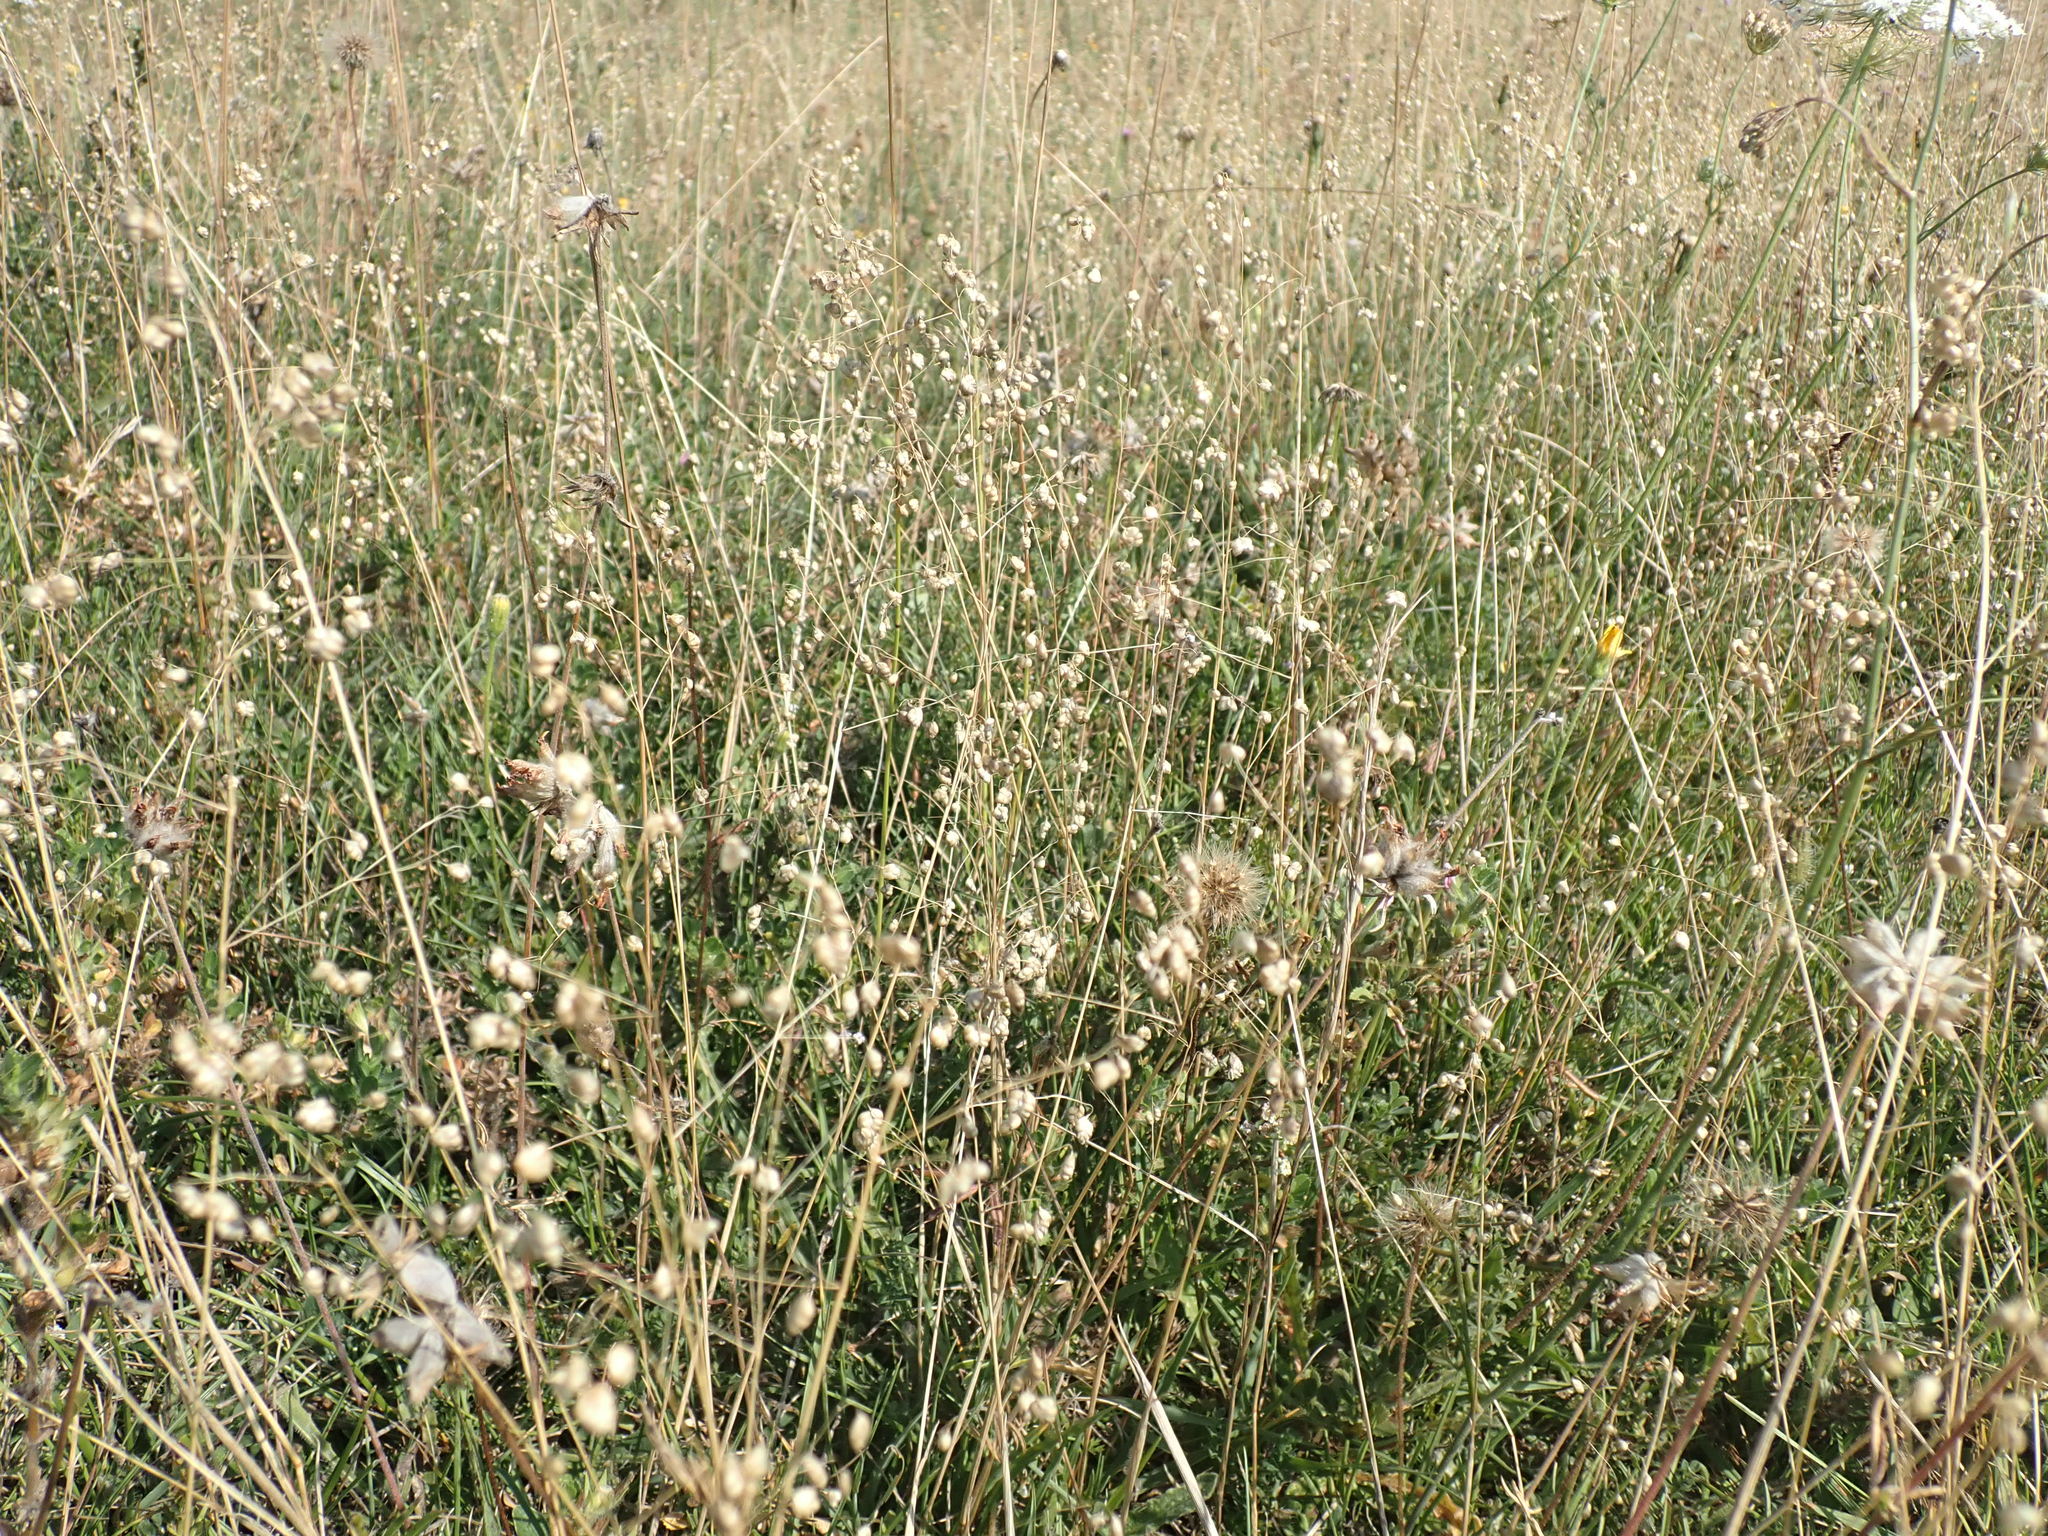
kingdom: Plantae
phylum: Tracheophyta
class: Liliopsida
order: Poales
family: Poaceae
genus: Briza
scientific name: Briza media
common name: Quaking grass
